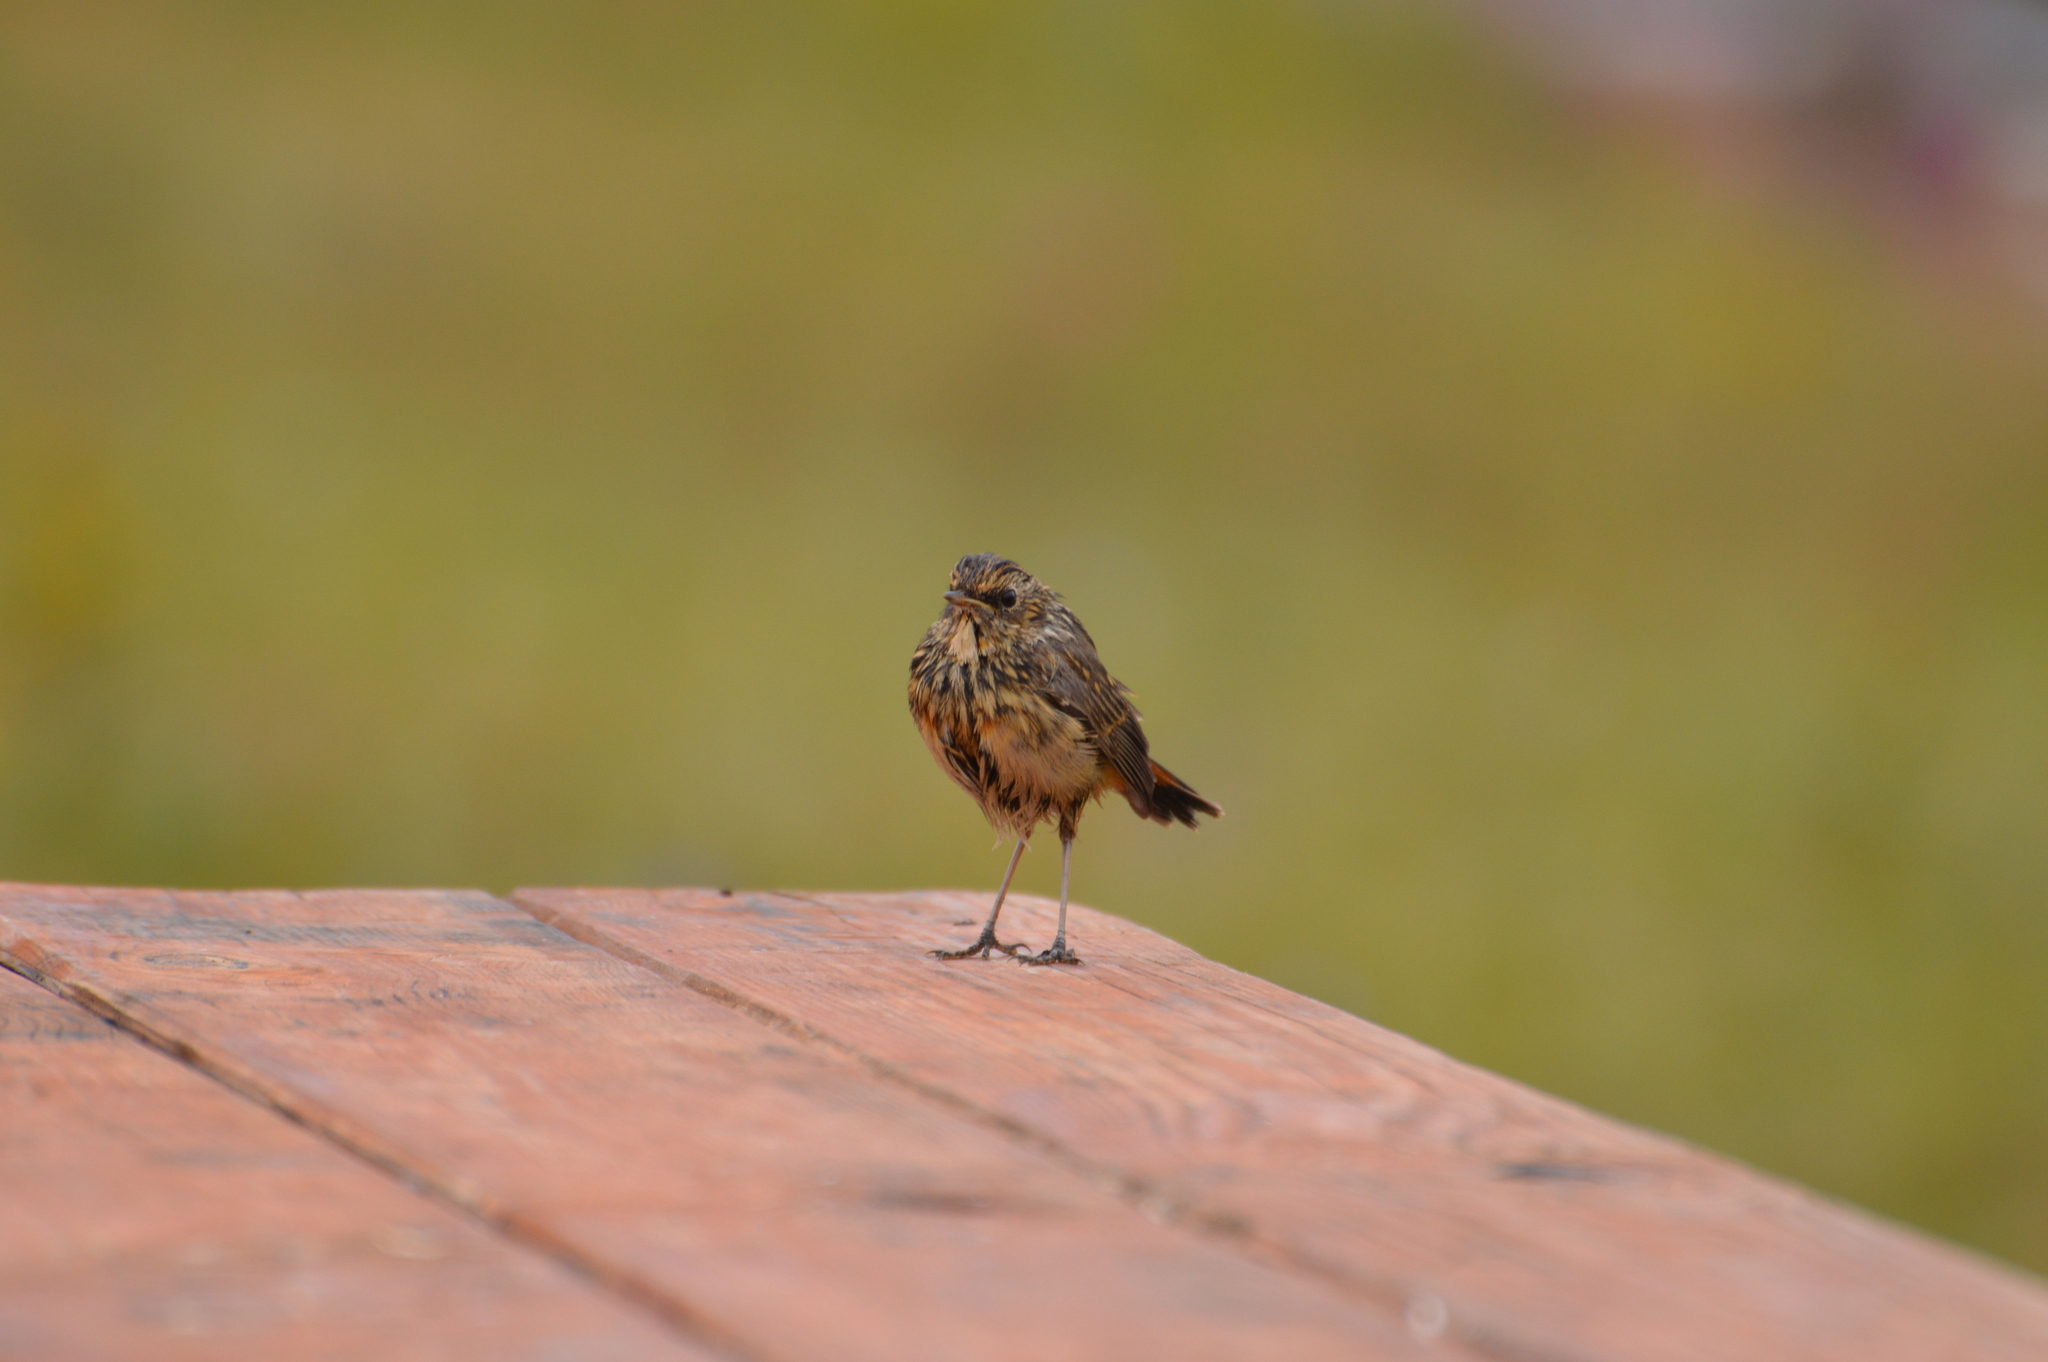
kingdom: Animalia
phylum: Chordata
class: Aves
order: Passeriformes
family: Muscicapidae
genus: Luscinia
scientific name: Luscinia svecica
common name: Bluethroat
